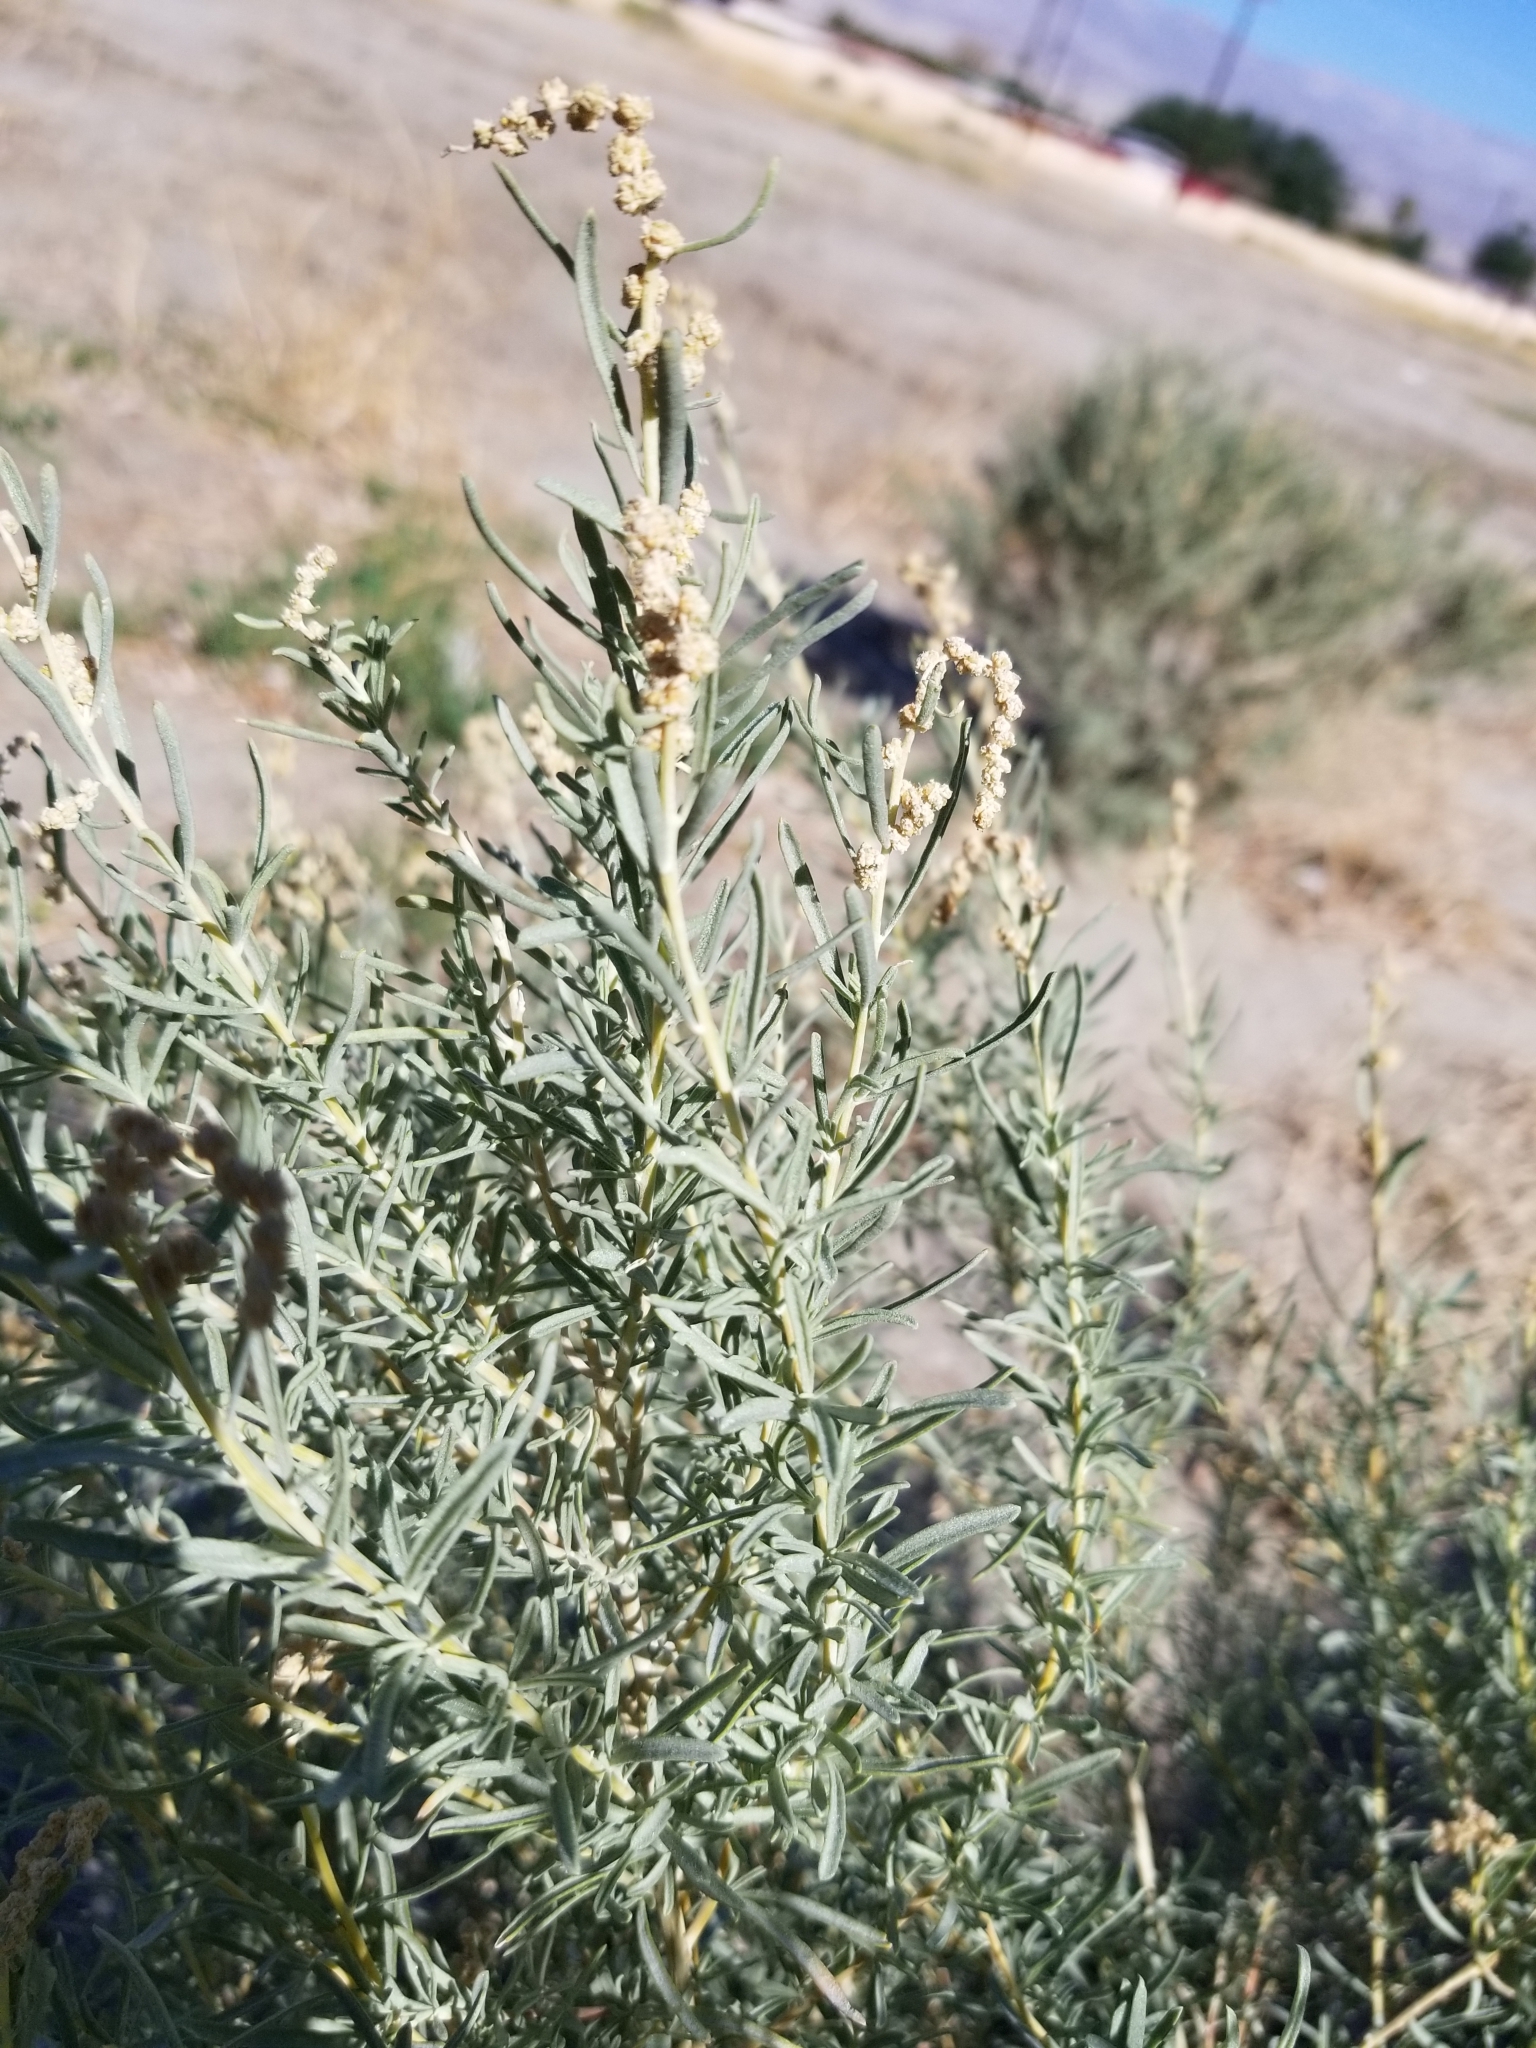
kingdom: Plantae
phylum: Tracheophyta
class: Magnoliopsida
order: Caryophyllales
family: Amaranthaceae
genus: Atriplex
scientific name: Atriplex canescens
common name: Four-wing saltbush
